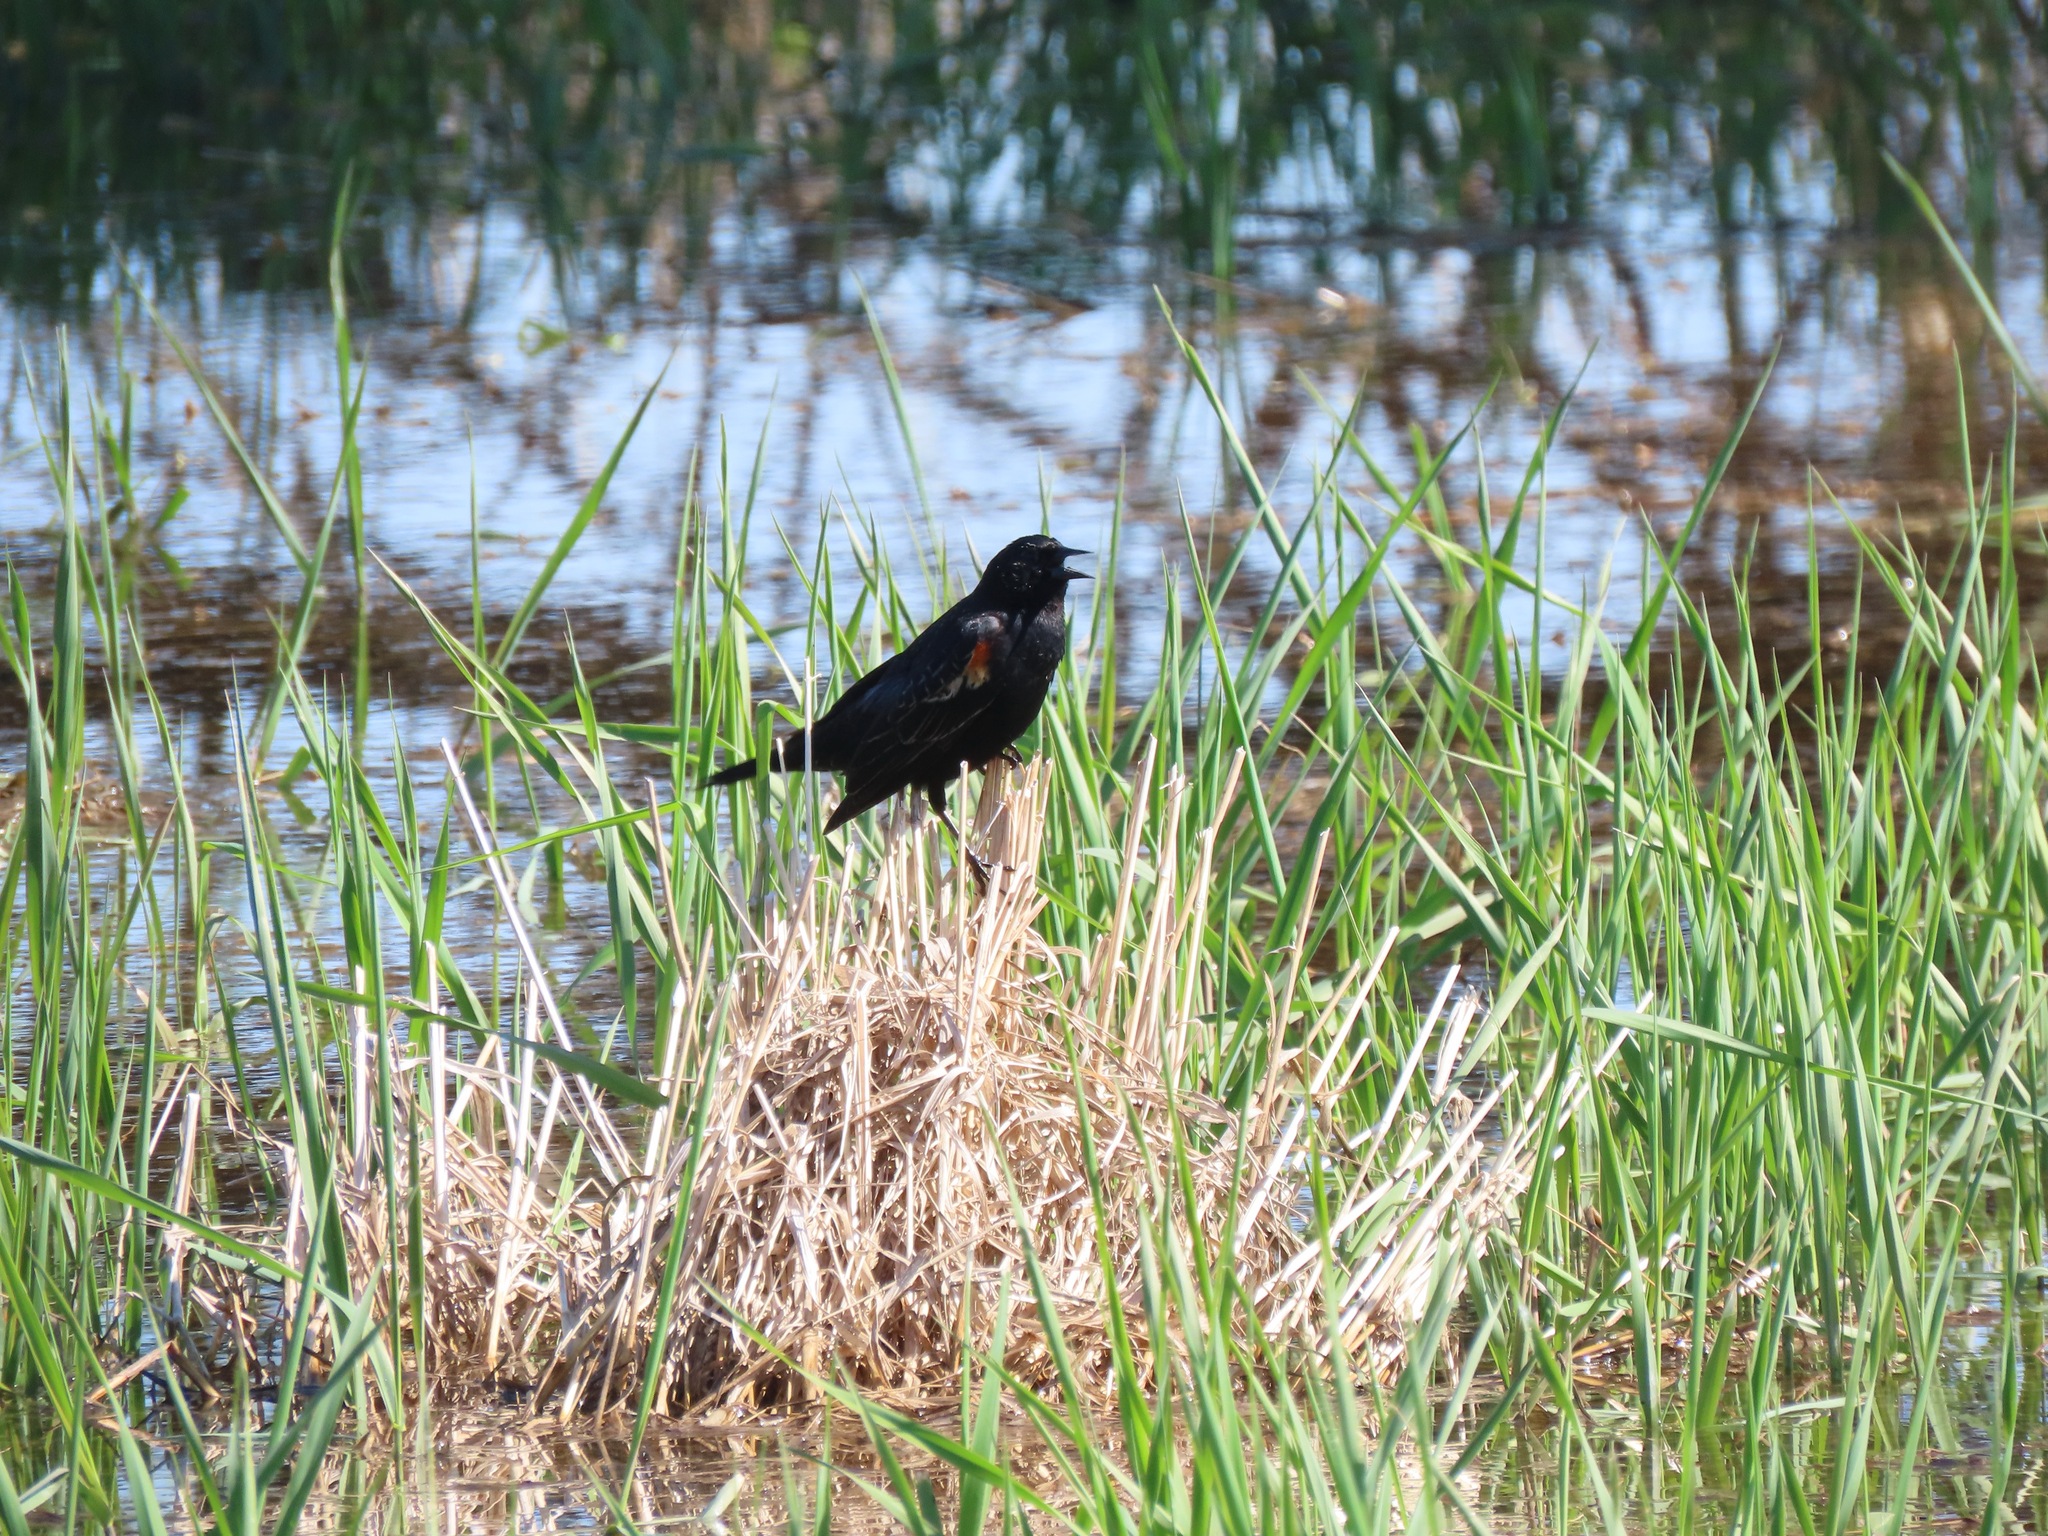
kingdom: Animalia
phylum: Chordata
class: Aves
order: Passeriformes
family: Icteridae
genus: Agelaius
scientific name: Agelaius phoeniceus
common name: Red-winged blackbird
